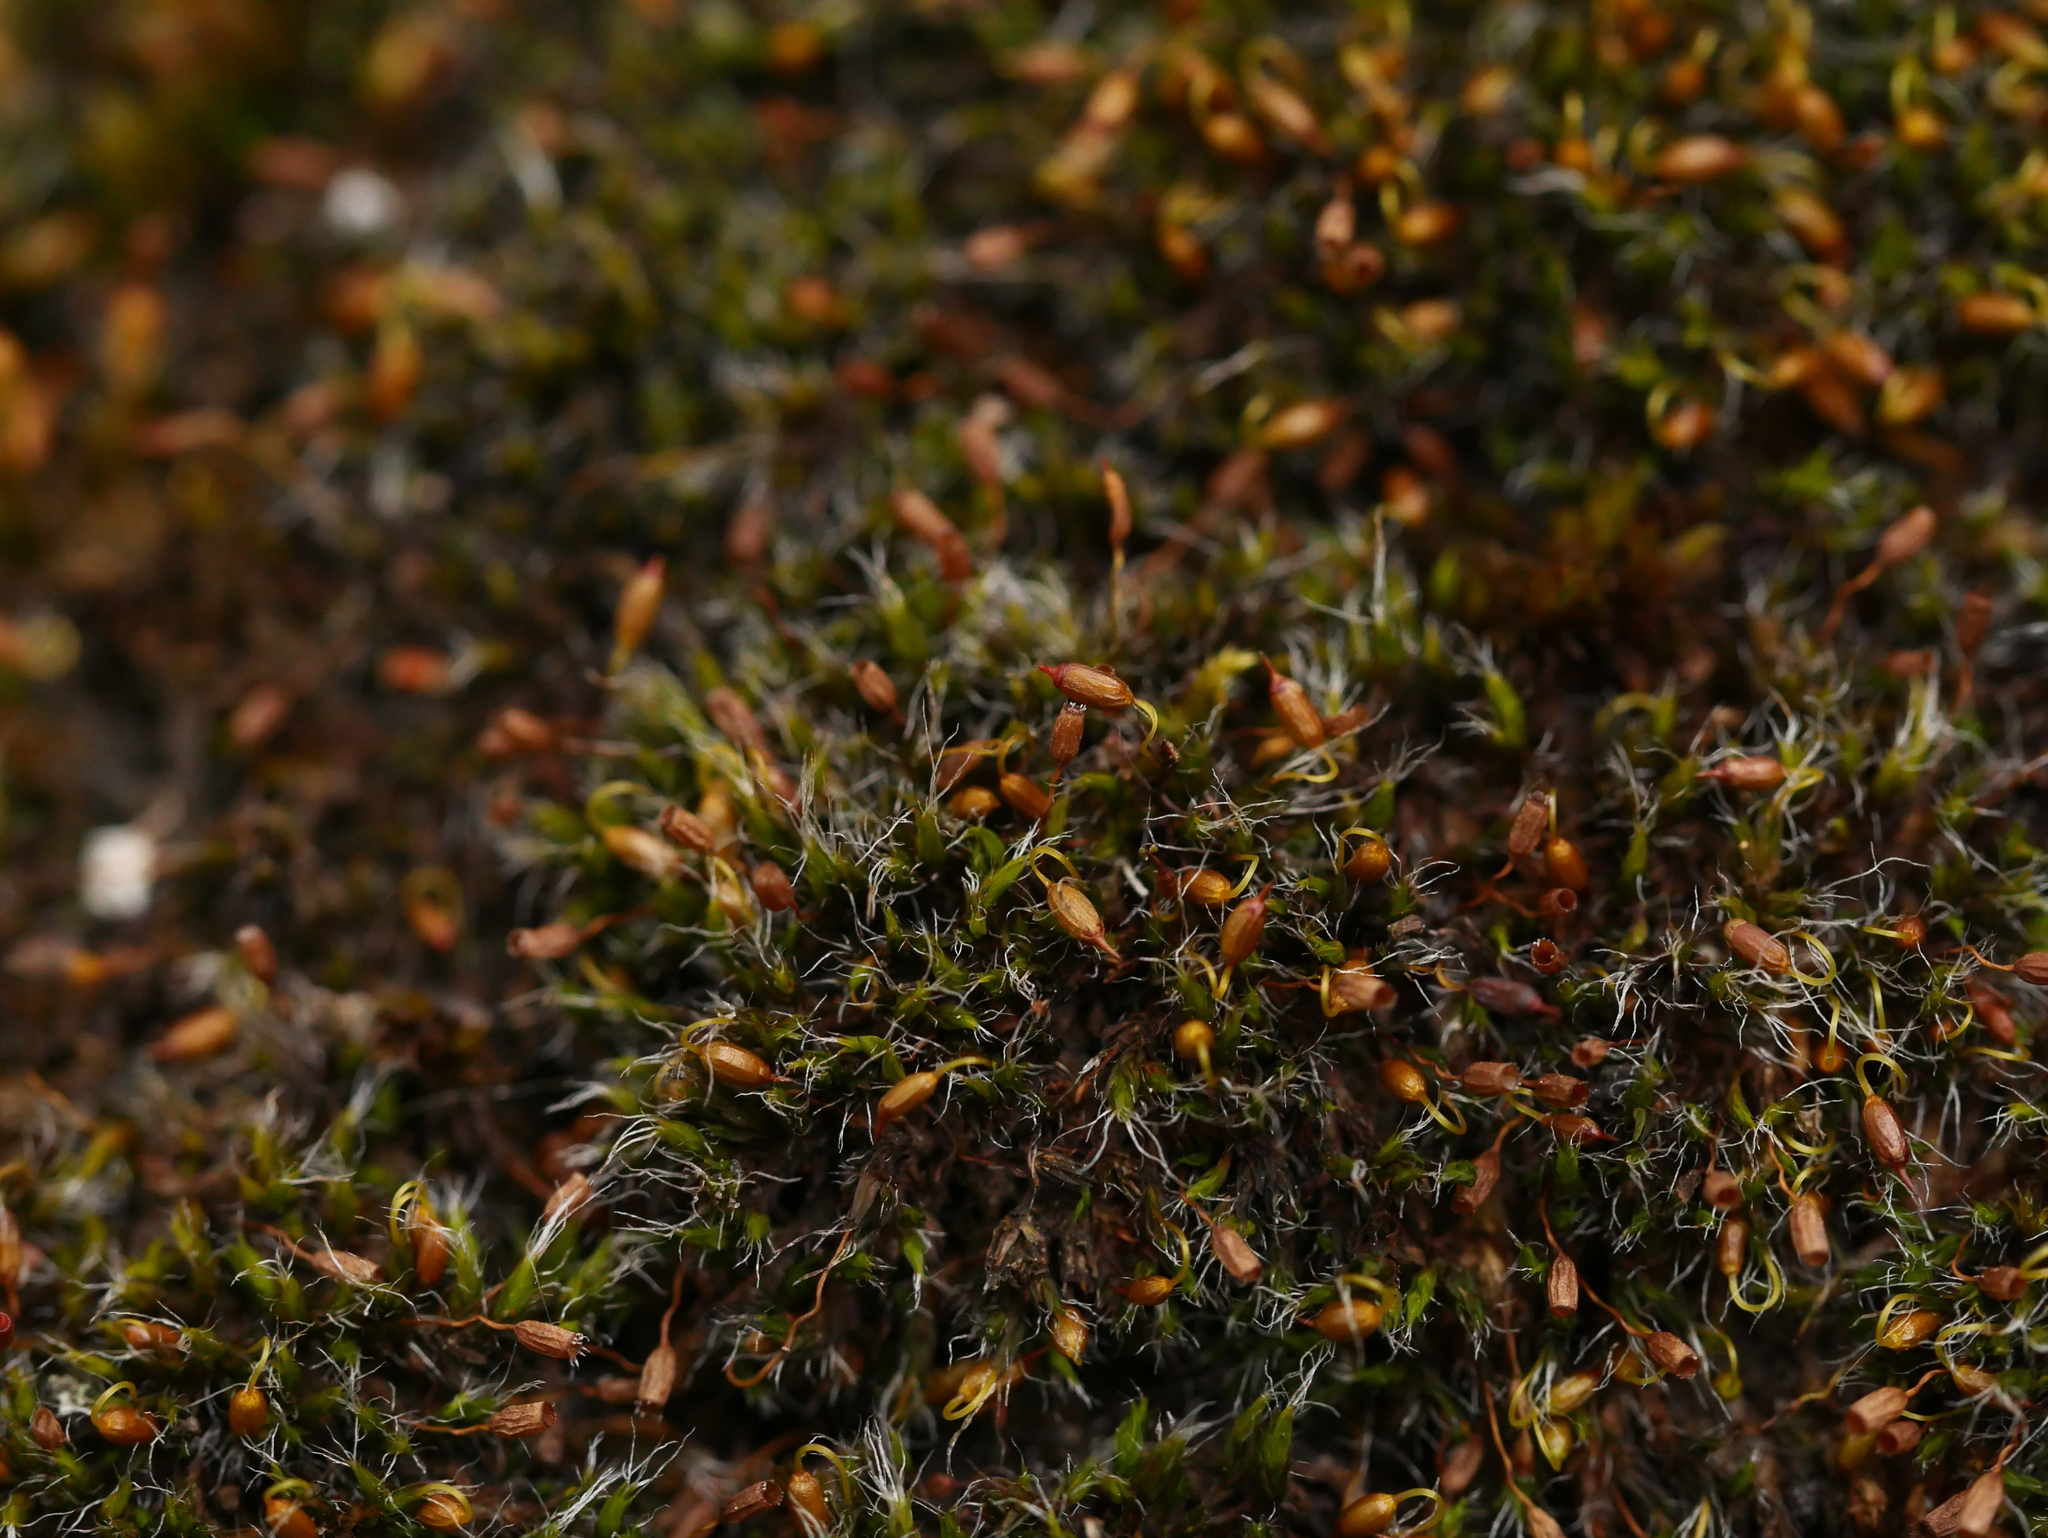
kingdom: Plantae
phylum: Bryophyta
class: Bryopsida
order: Grimmiales
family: Grimmiaceae
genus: Grimmia
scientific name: Grimmia pulvinata
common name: Grey-cushioned grimmia
